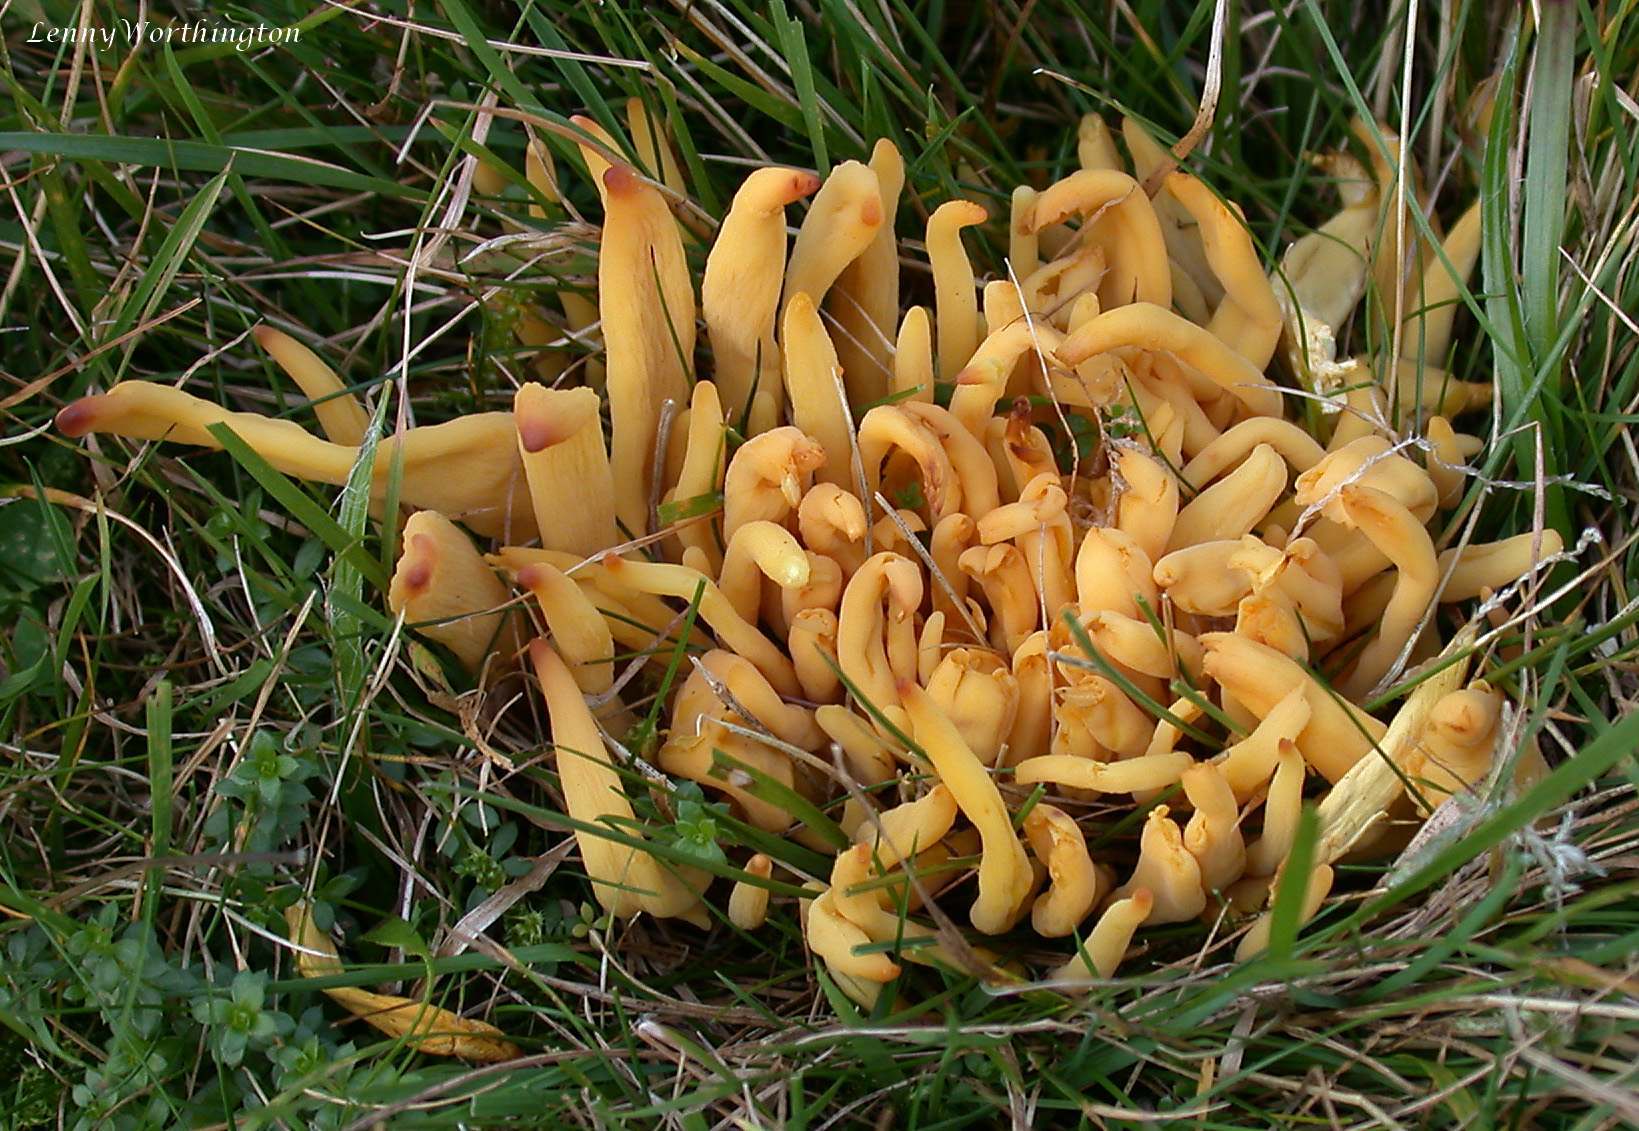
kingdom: Fungi
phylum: Basidiomycota
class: Agaricomycetes
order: Agaricales
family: Clavariaceae
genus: Clavulinopsis
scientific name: Clavulinopsis fusiformis
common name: Golden spindles
